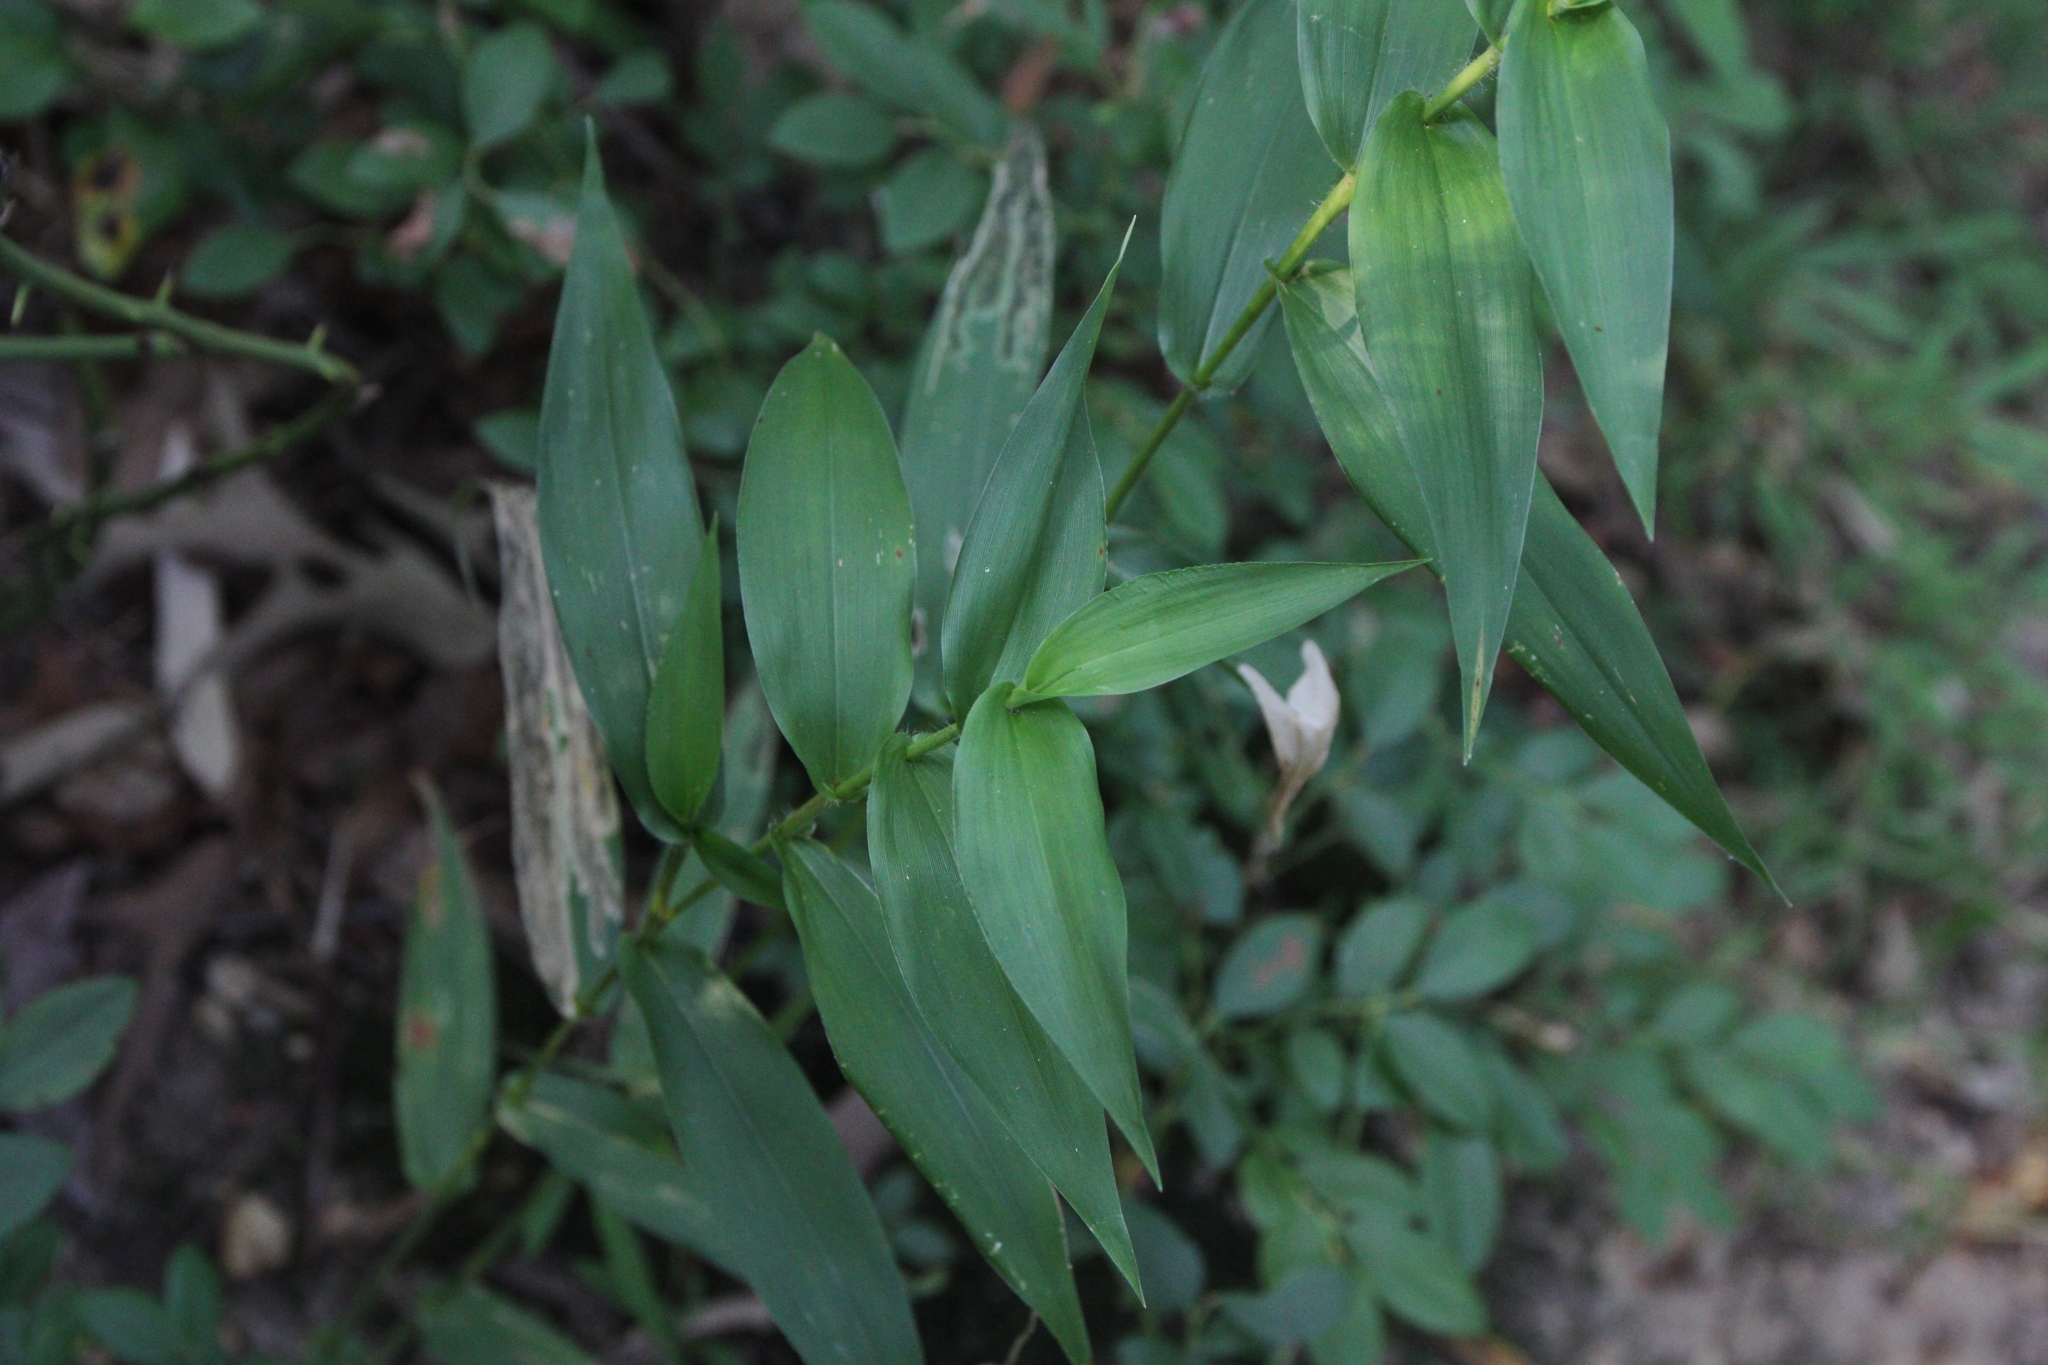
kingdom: Plantae
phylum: Tracheophyta
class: Liliopsida
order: Poales
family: Poaceae
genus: Dichanthelium
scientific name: Dichanthelium clandestinum
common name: Deer-tongue grass
